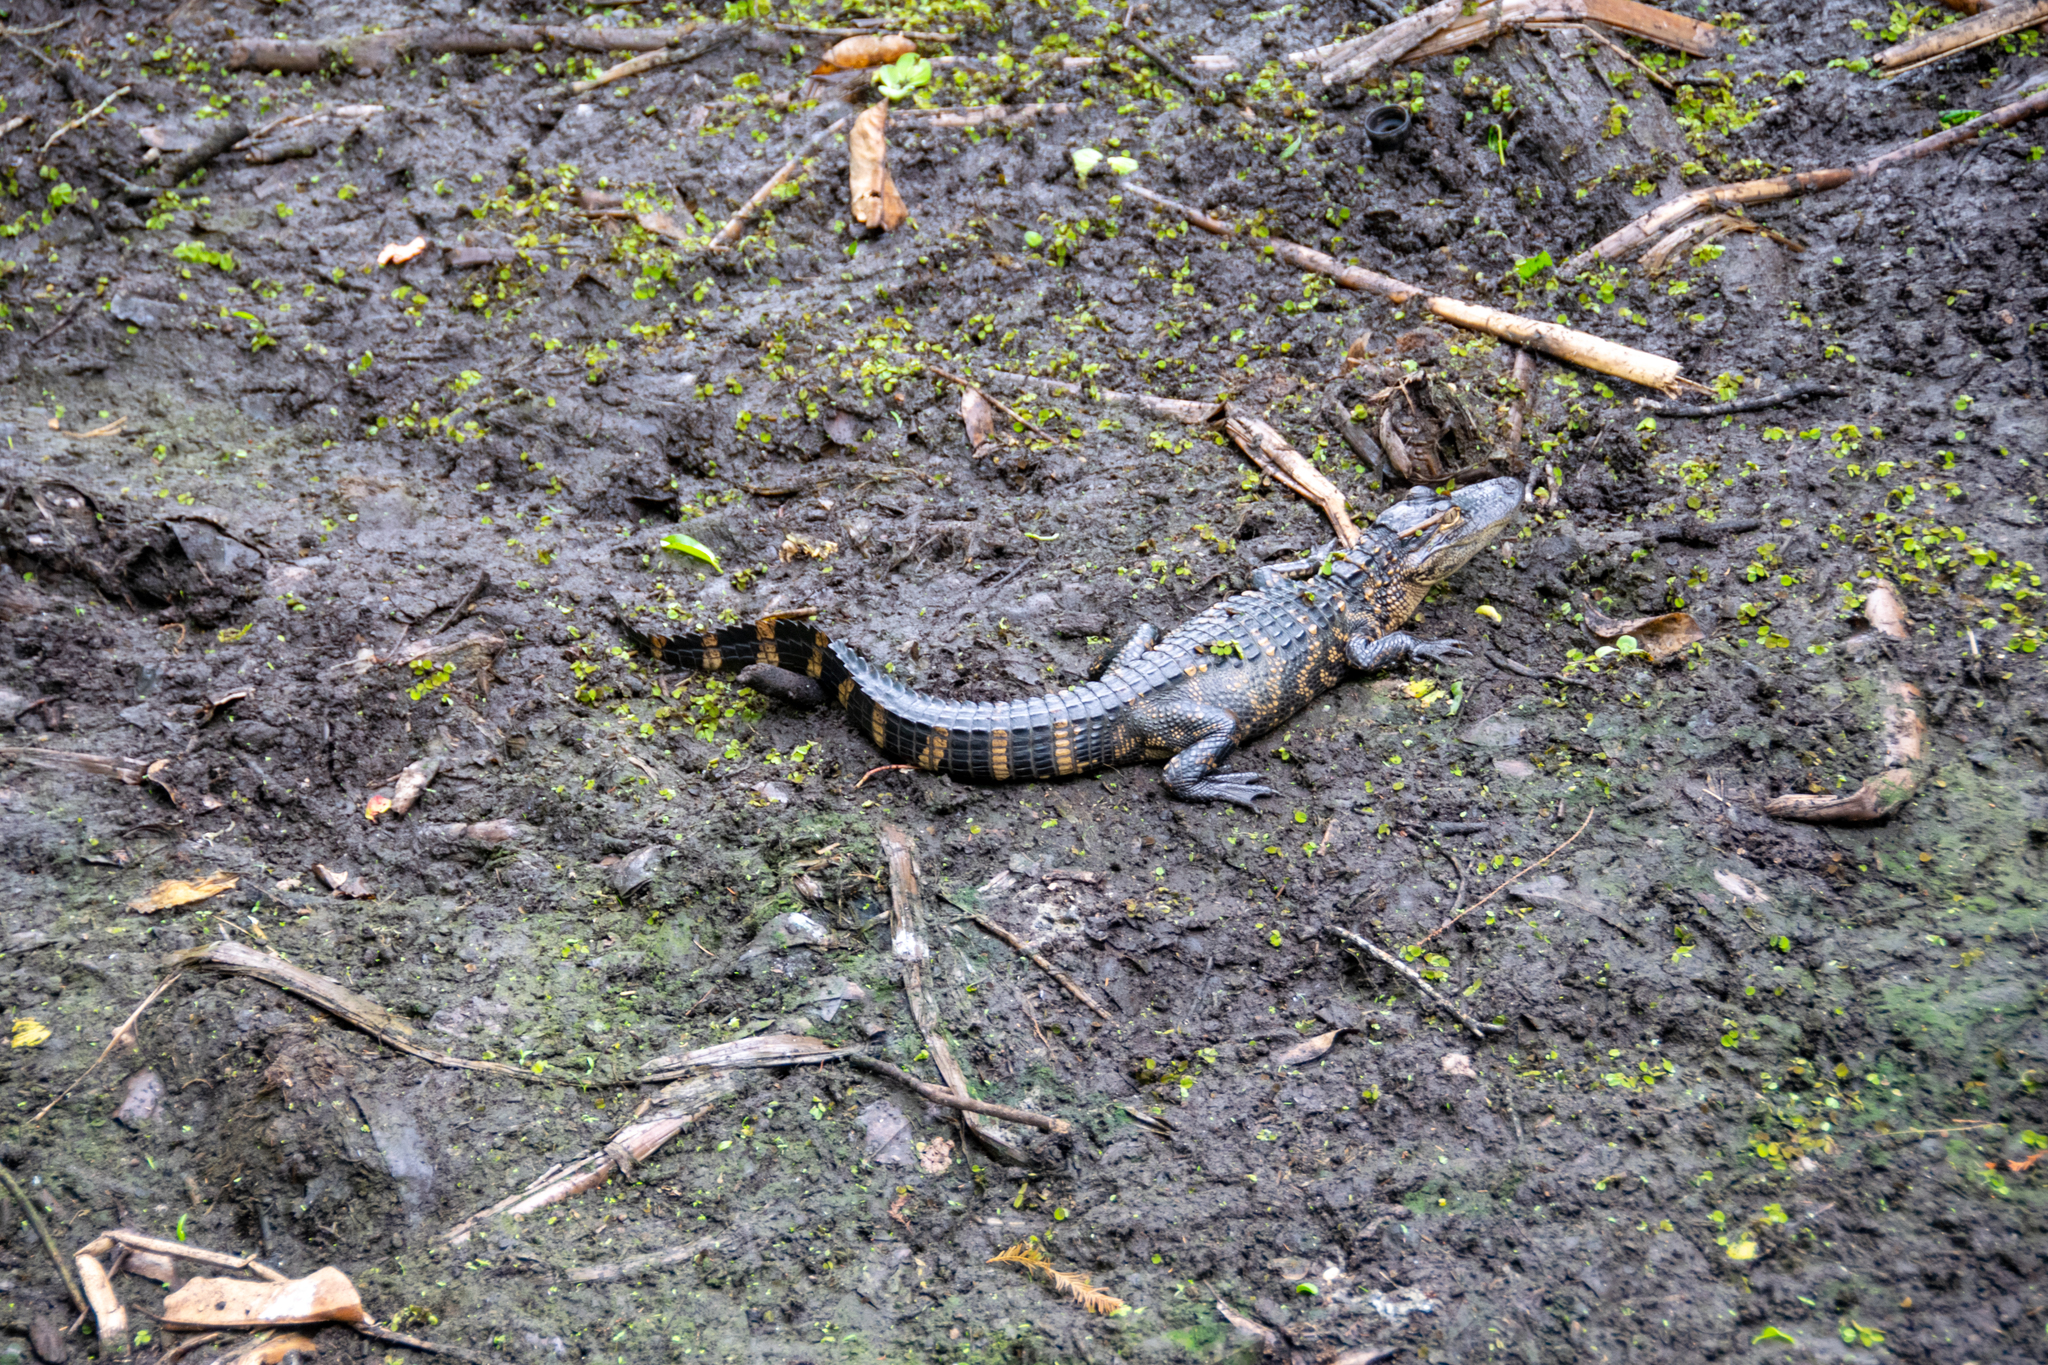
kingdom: Animalia
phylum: Chordata
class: Crocodylia
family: Alligatoridae
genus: Alligator
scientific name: Alligator mississippiensis
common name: American alligator
